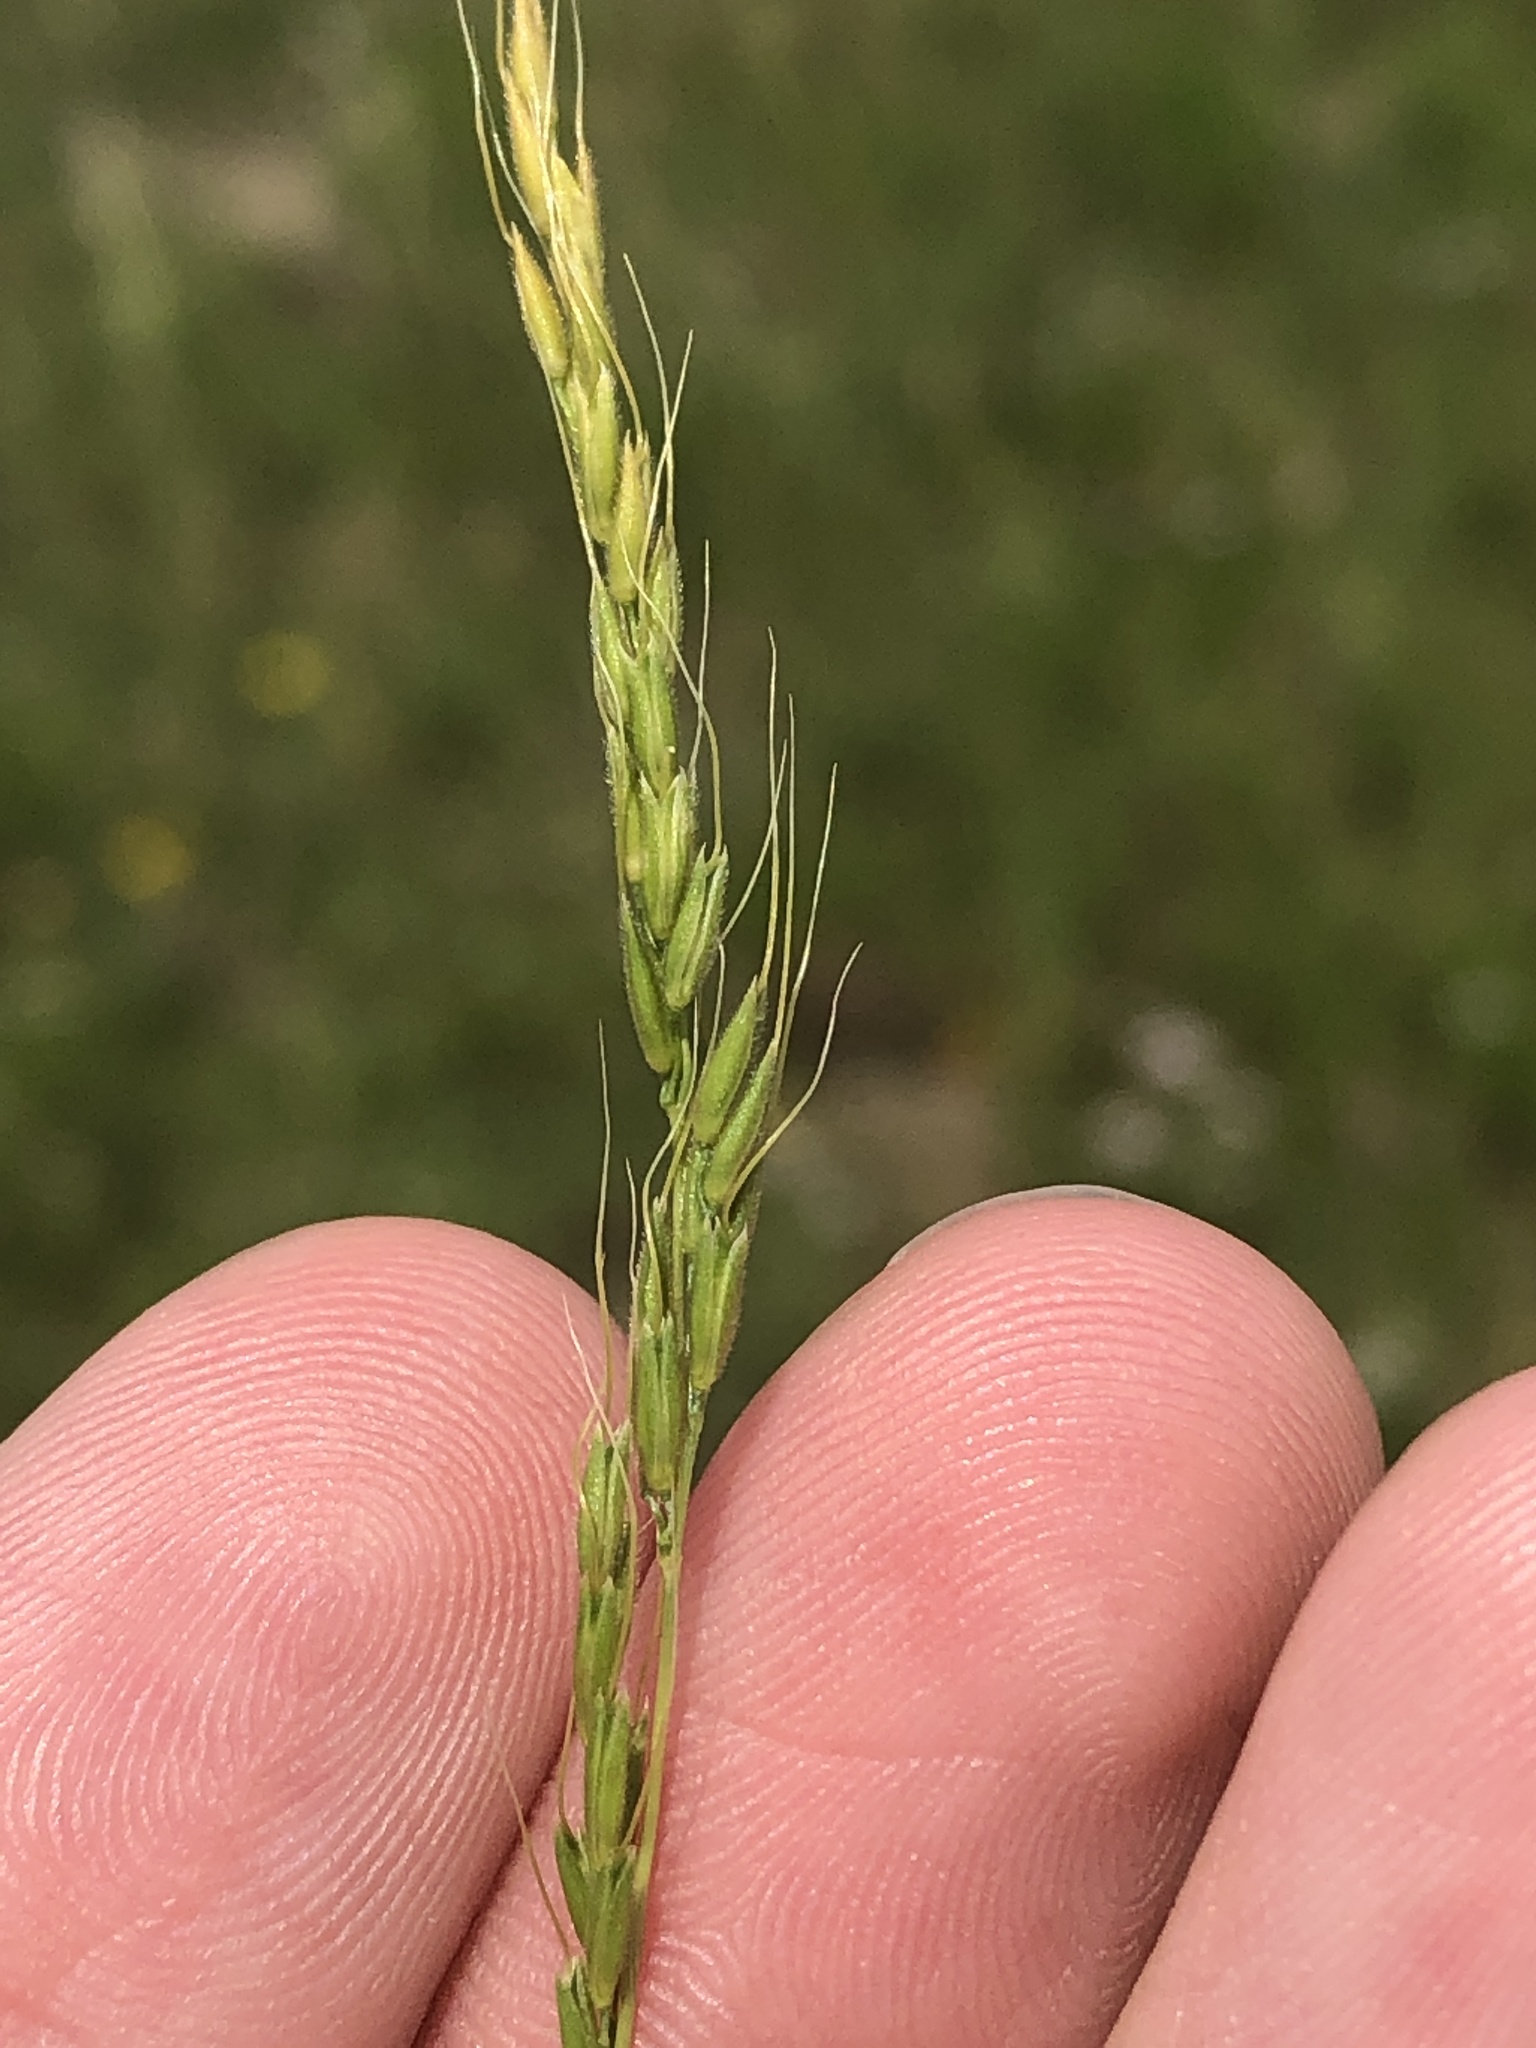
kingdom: Plantae
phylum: Tracheophyta
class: Liliopsida
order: Poales
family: Poaceae
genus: Limnodea
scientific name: Limnodea arkansana
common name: Ozark-grass
